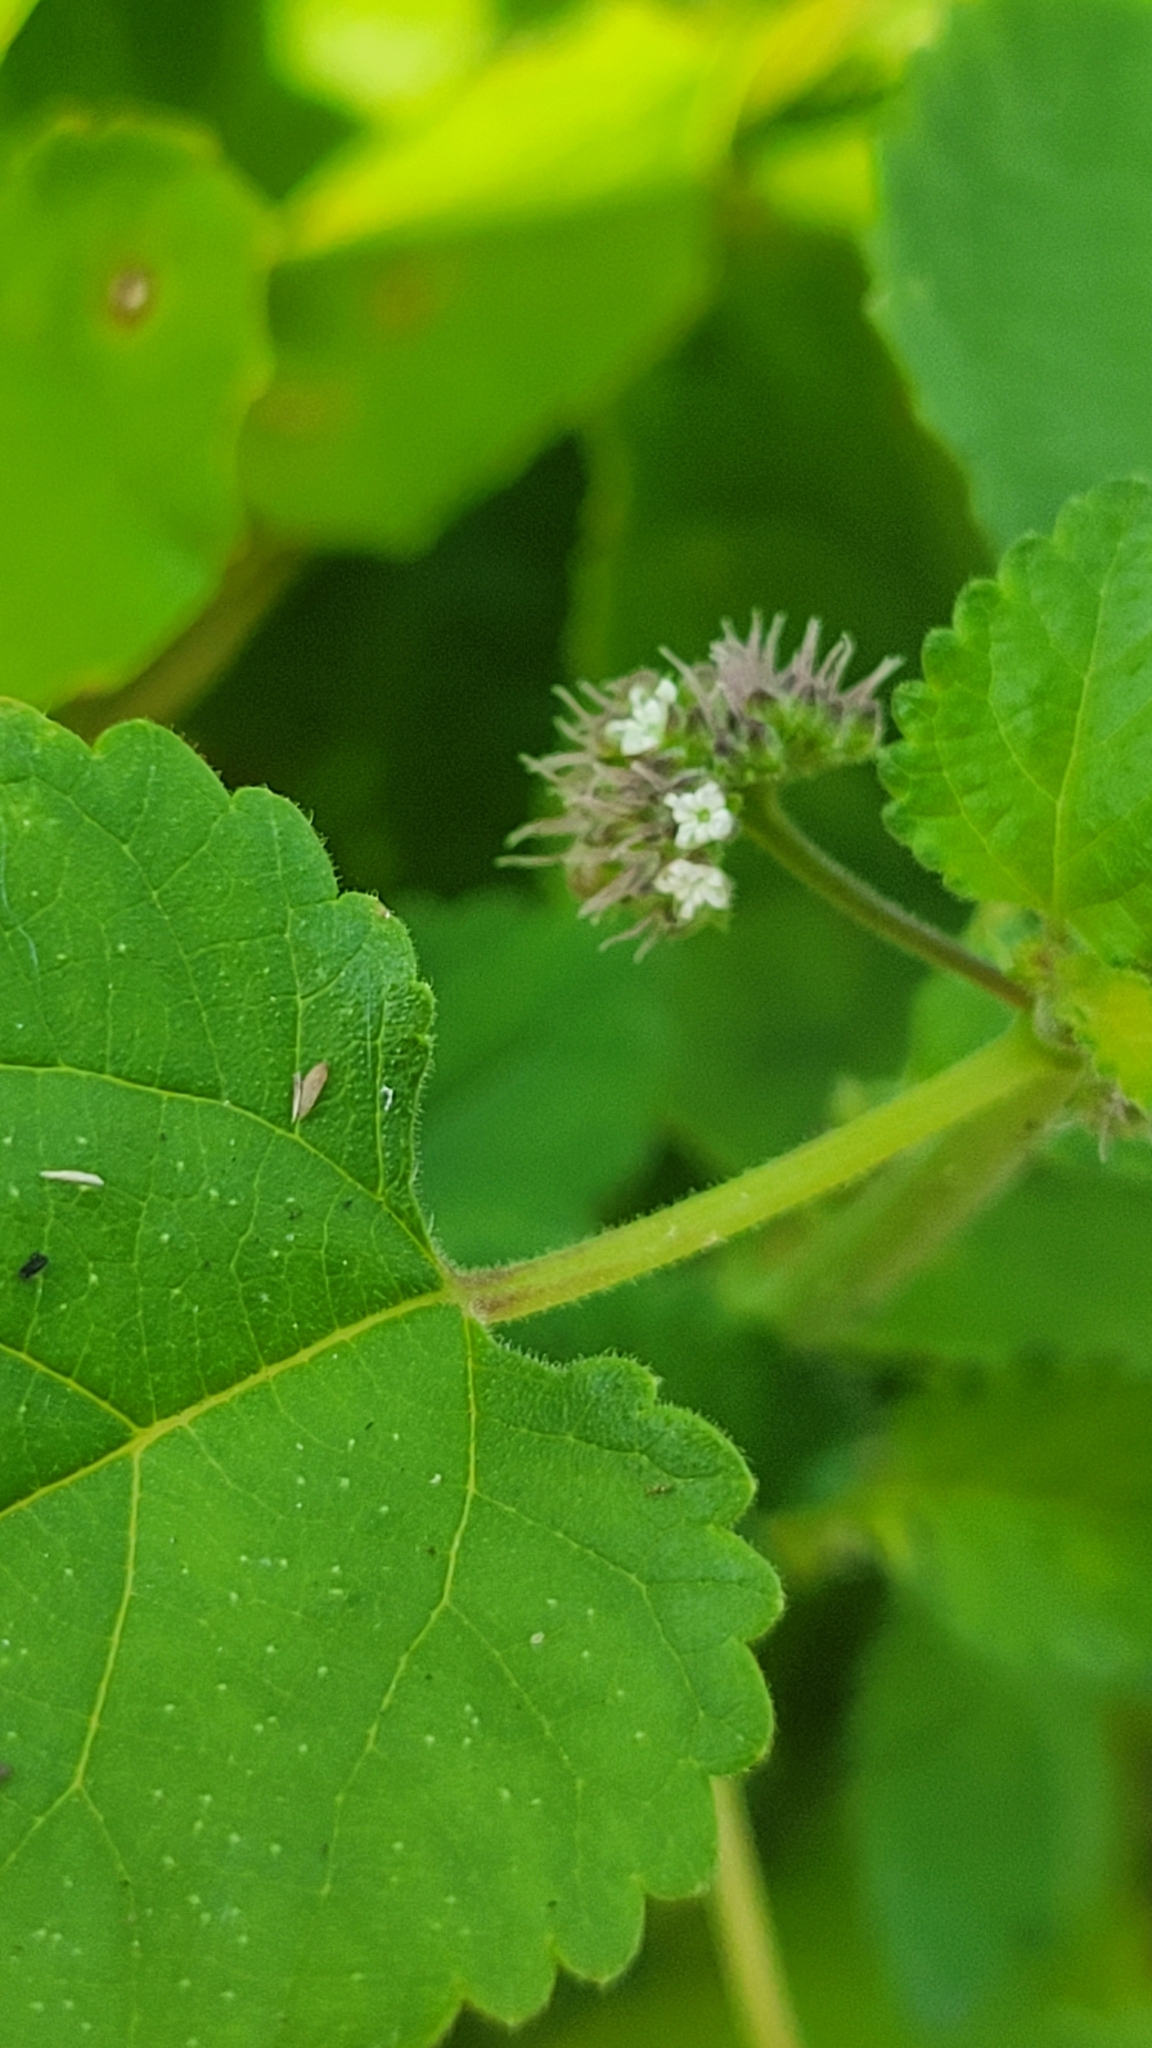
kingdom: Plantae
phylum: Tracheophyta
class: Magnoliopsida
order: Rosales
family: Moraceae
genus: Fatoua
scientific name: Fatoua villosa
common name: Hairy crabweed
